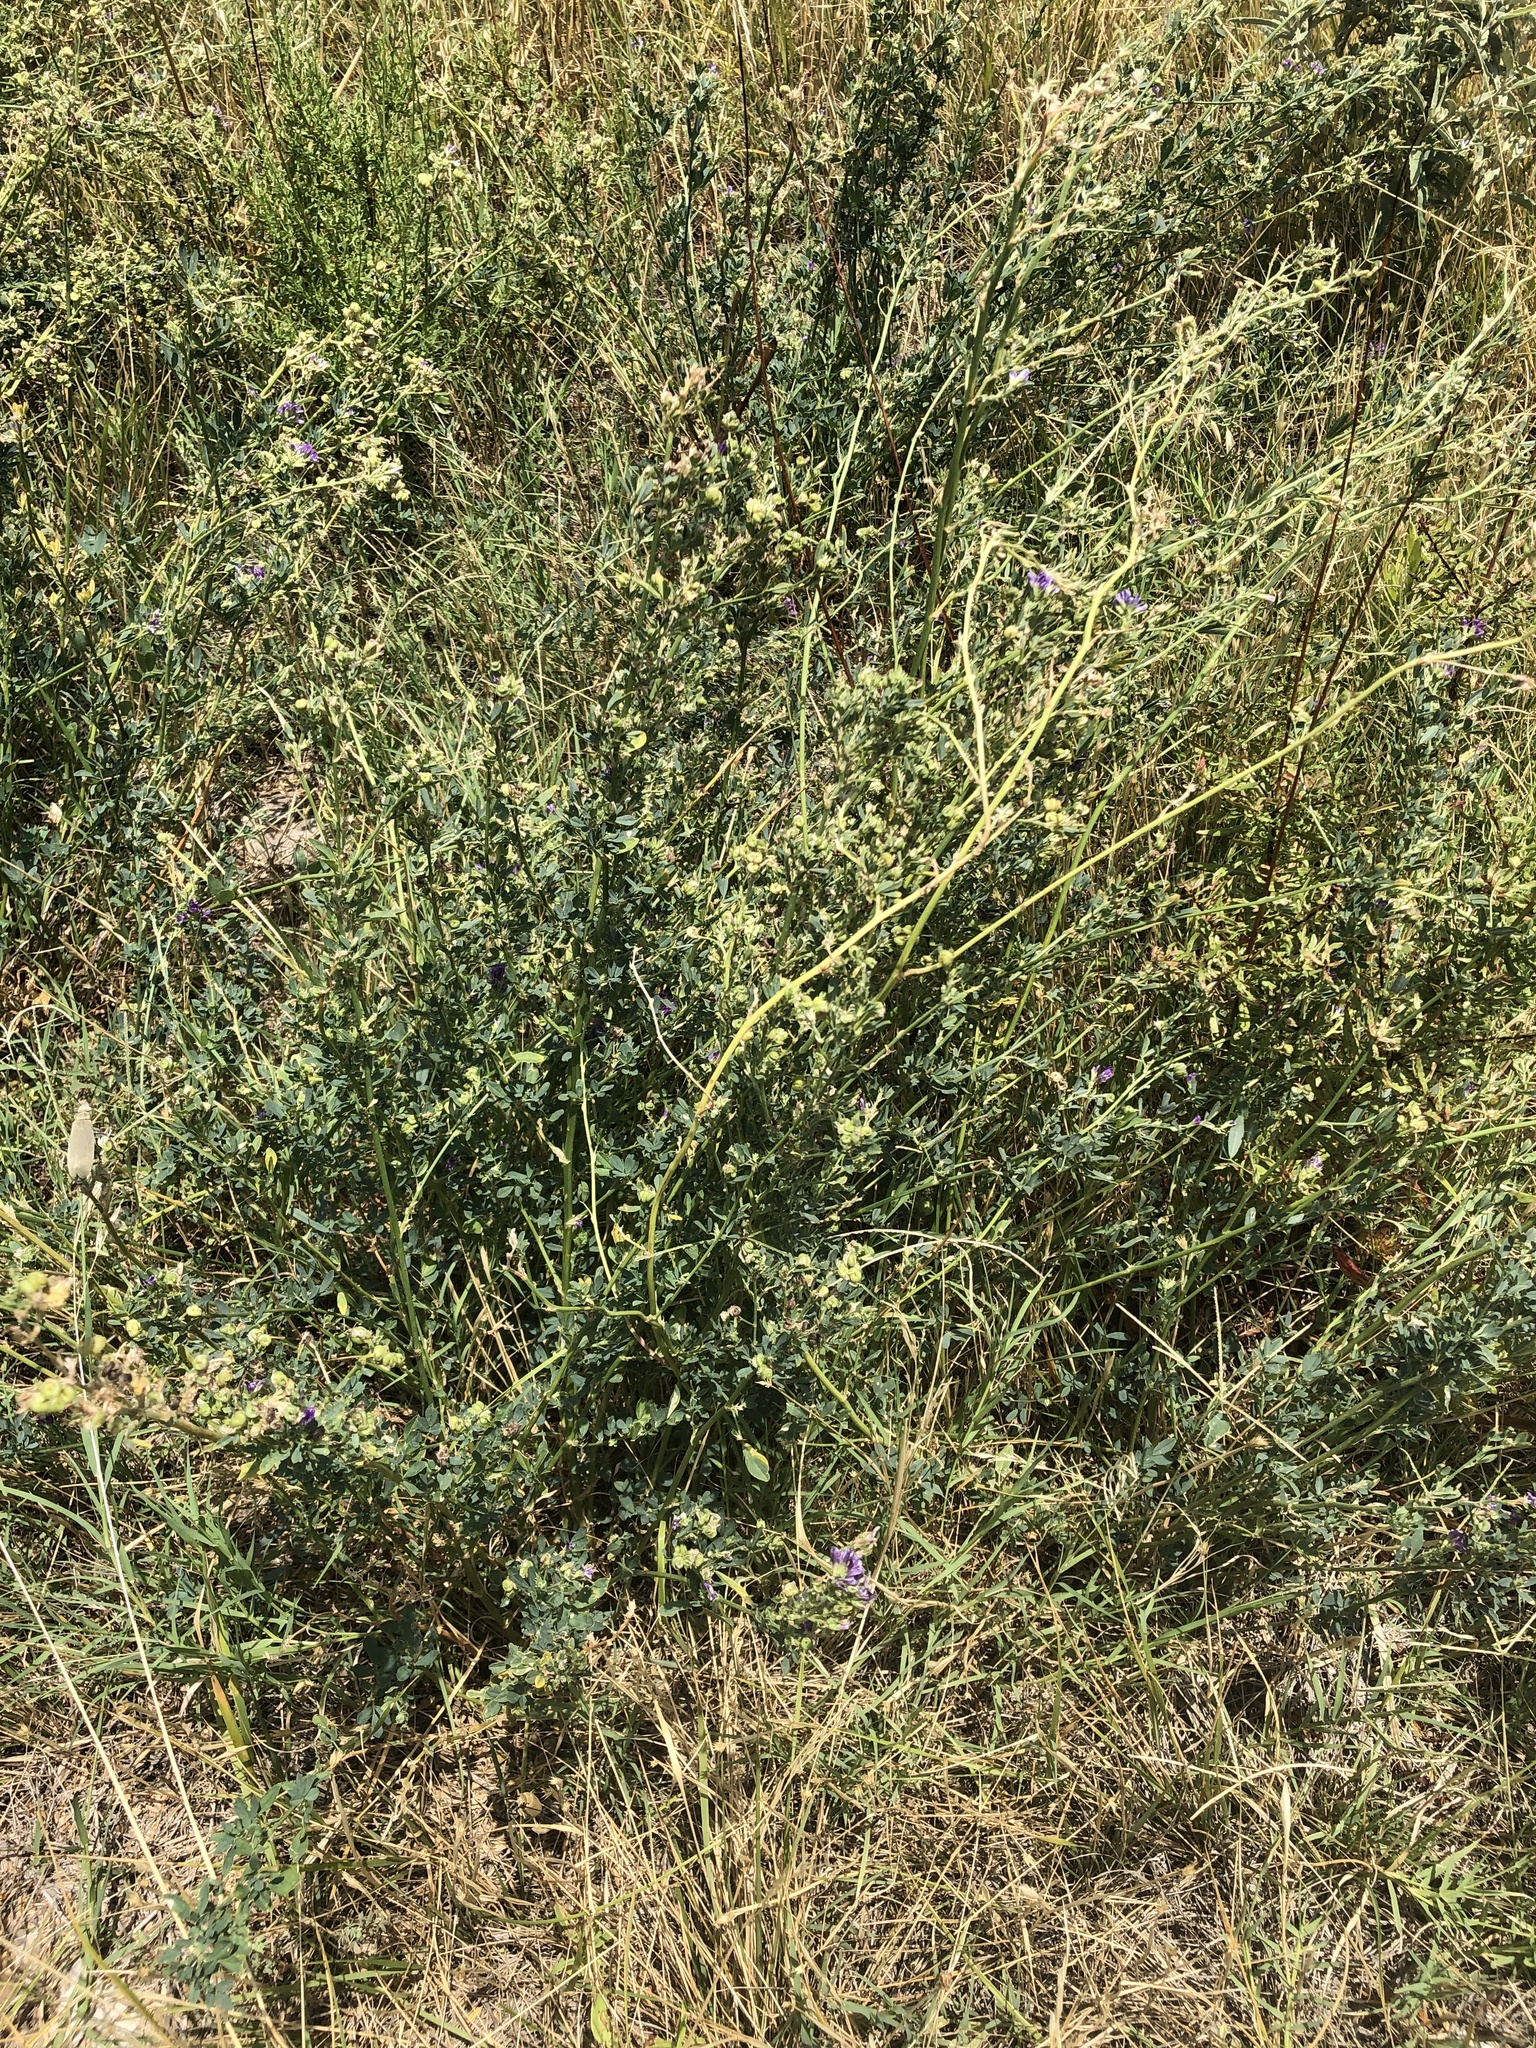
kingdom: Plantae
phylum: Tracheophyta
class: Magnoliopsida
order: Fabales
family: Fabaceae
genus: Medicago
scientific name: Medicago sativa
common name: Alfalfa
